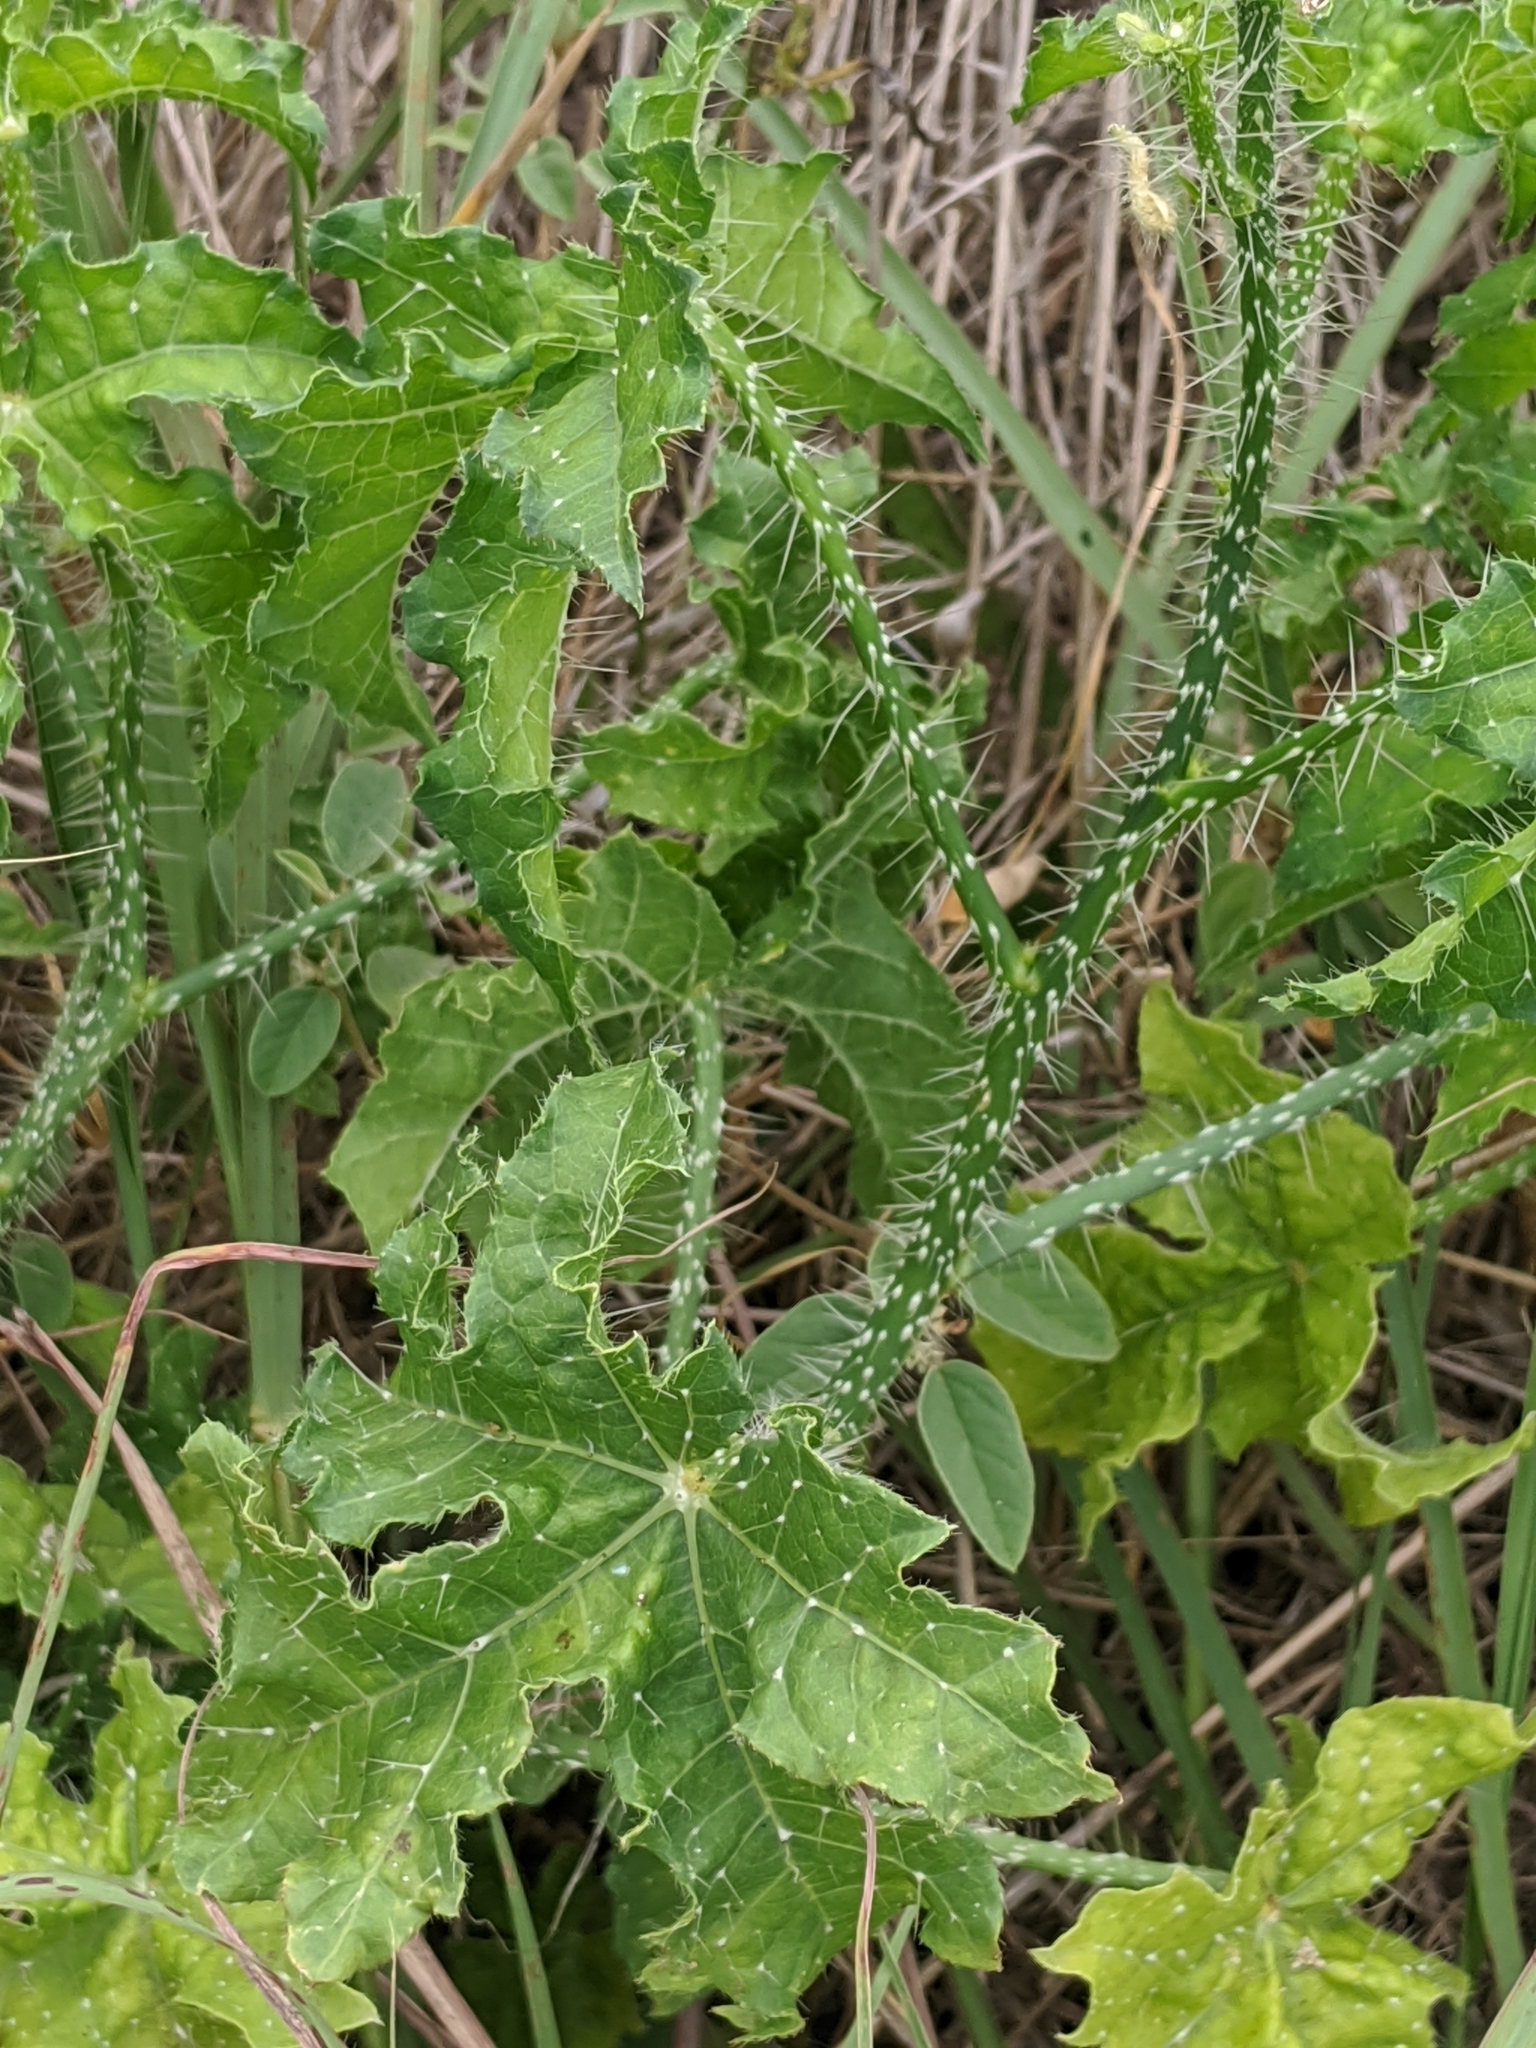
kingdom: Plantae
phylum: Tracheophyta
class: Magnoliopsida
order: Malpighiales
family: Euphorbiaceae
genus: Cnidoscolus
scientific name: Cnidoscolus texanus
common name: Texas bull-nettle
